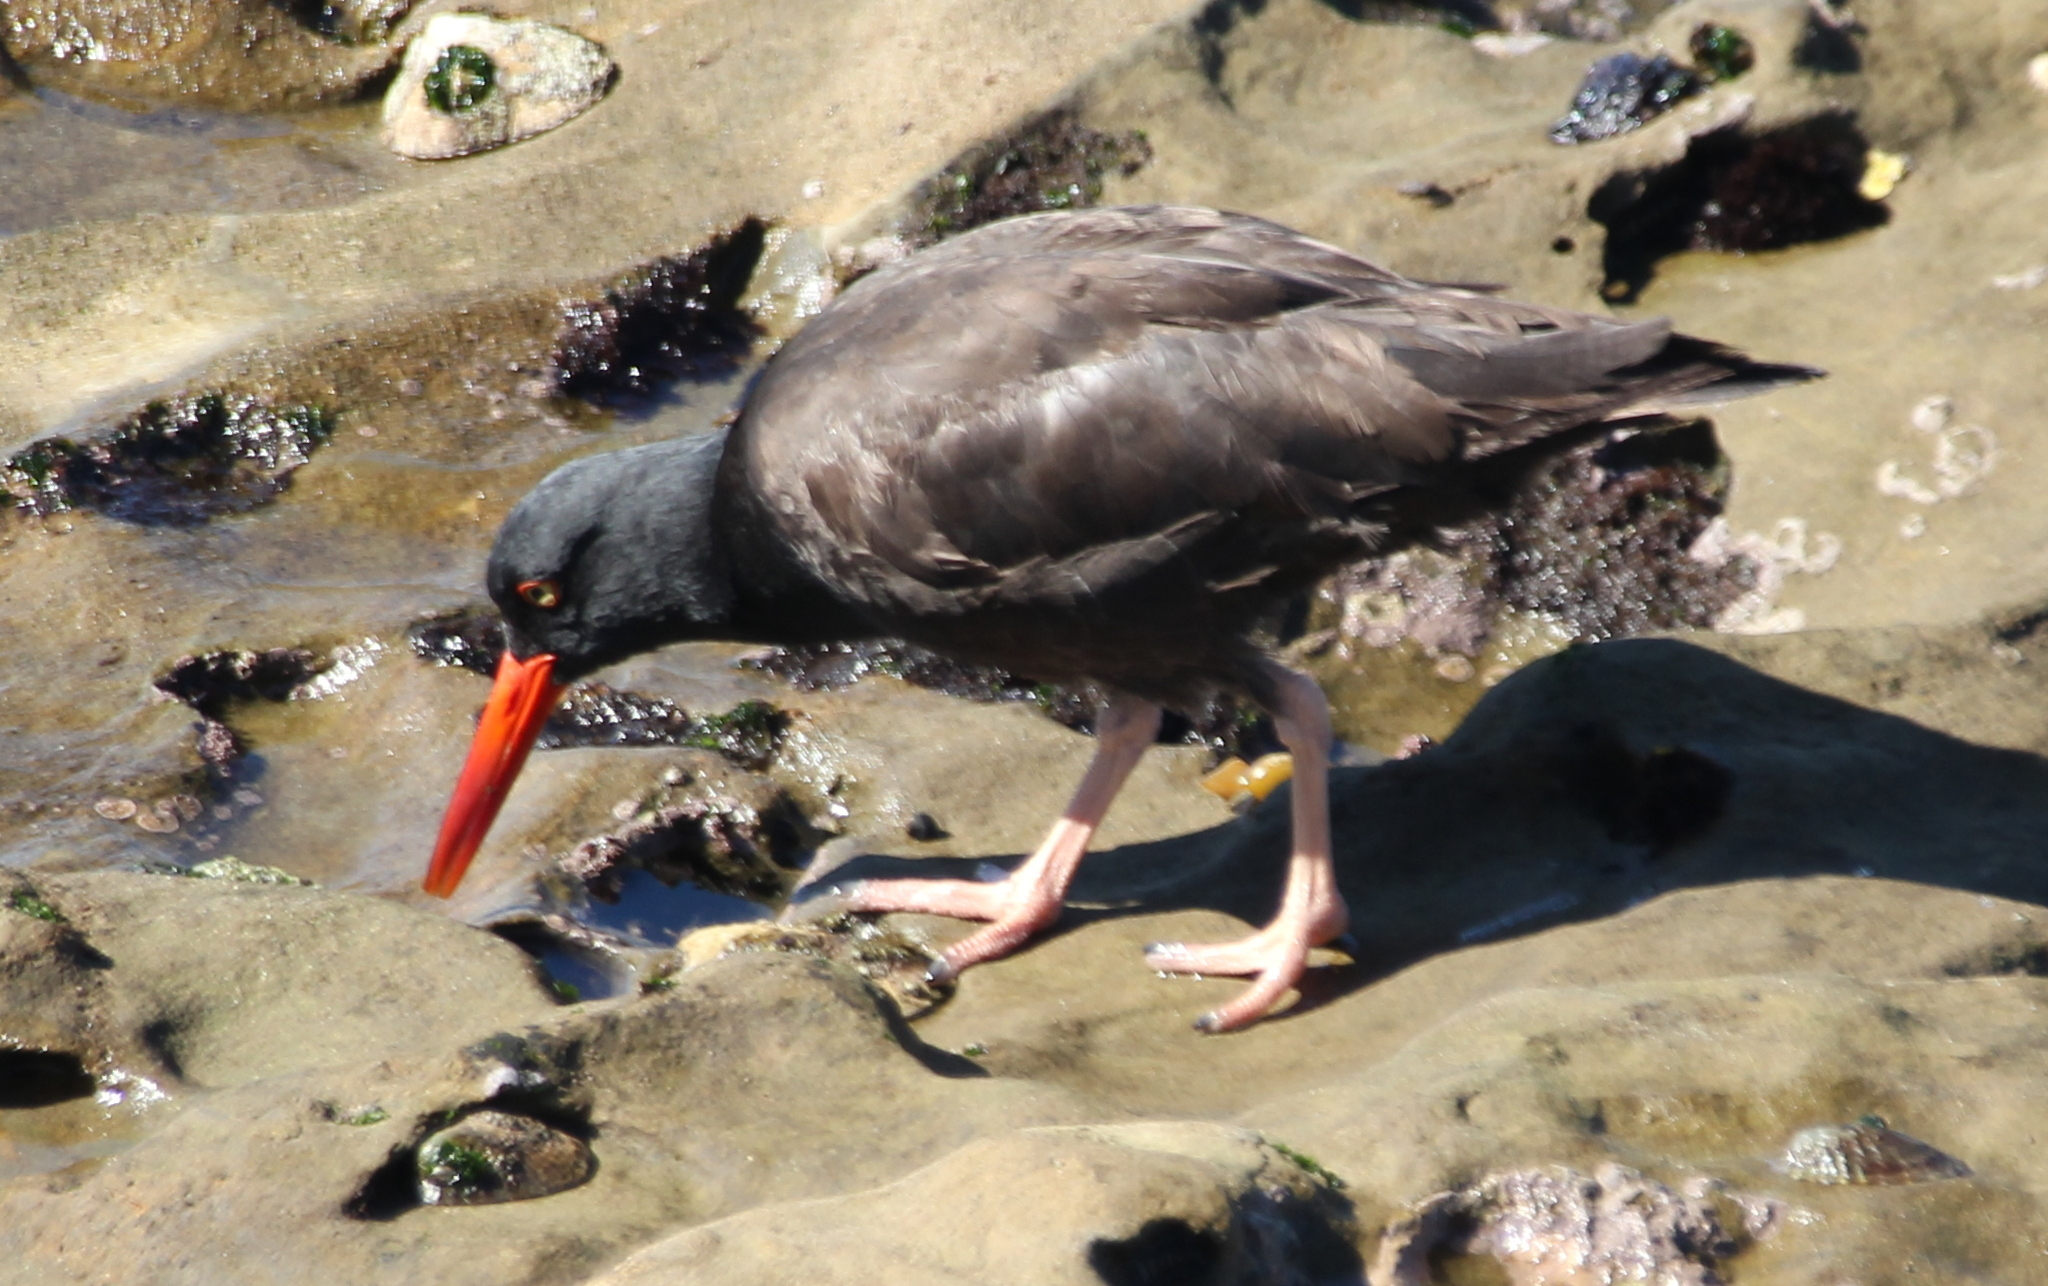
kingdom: Animalia
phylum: Chordata
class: Aves
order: Charadriiformes
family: Haematopodidae
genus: Haematopus
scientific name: Haematopus bachmani
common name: Black oystercatcher
